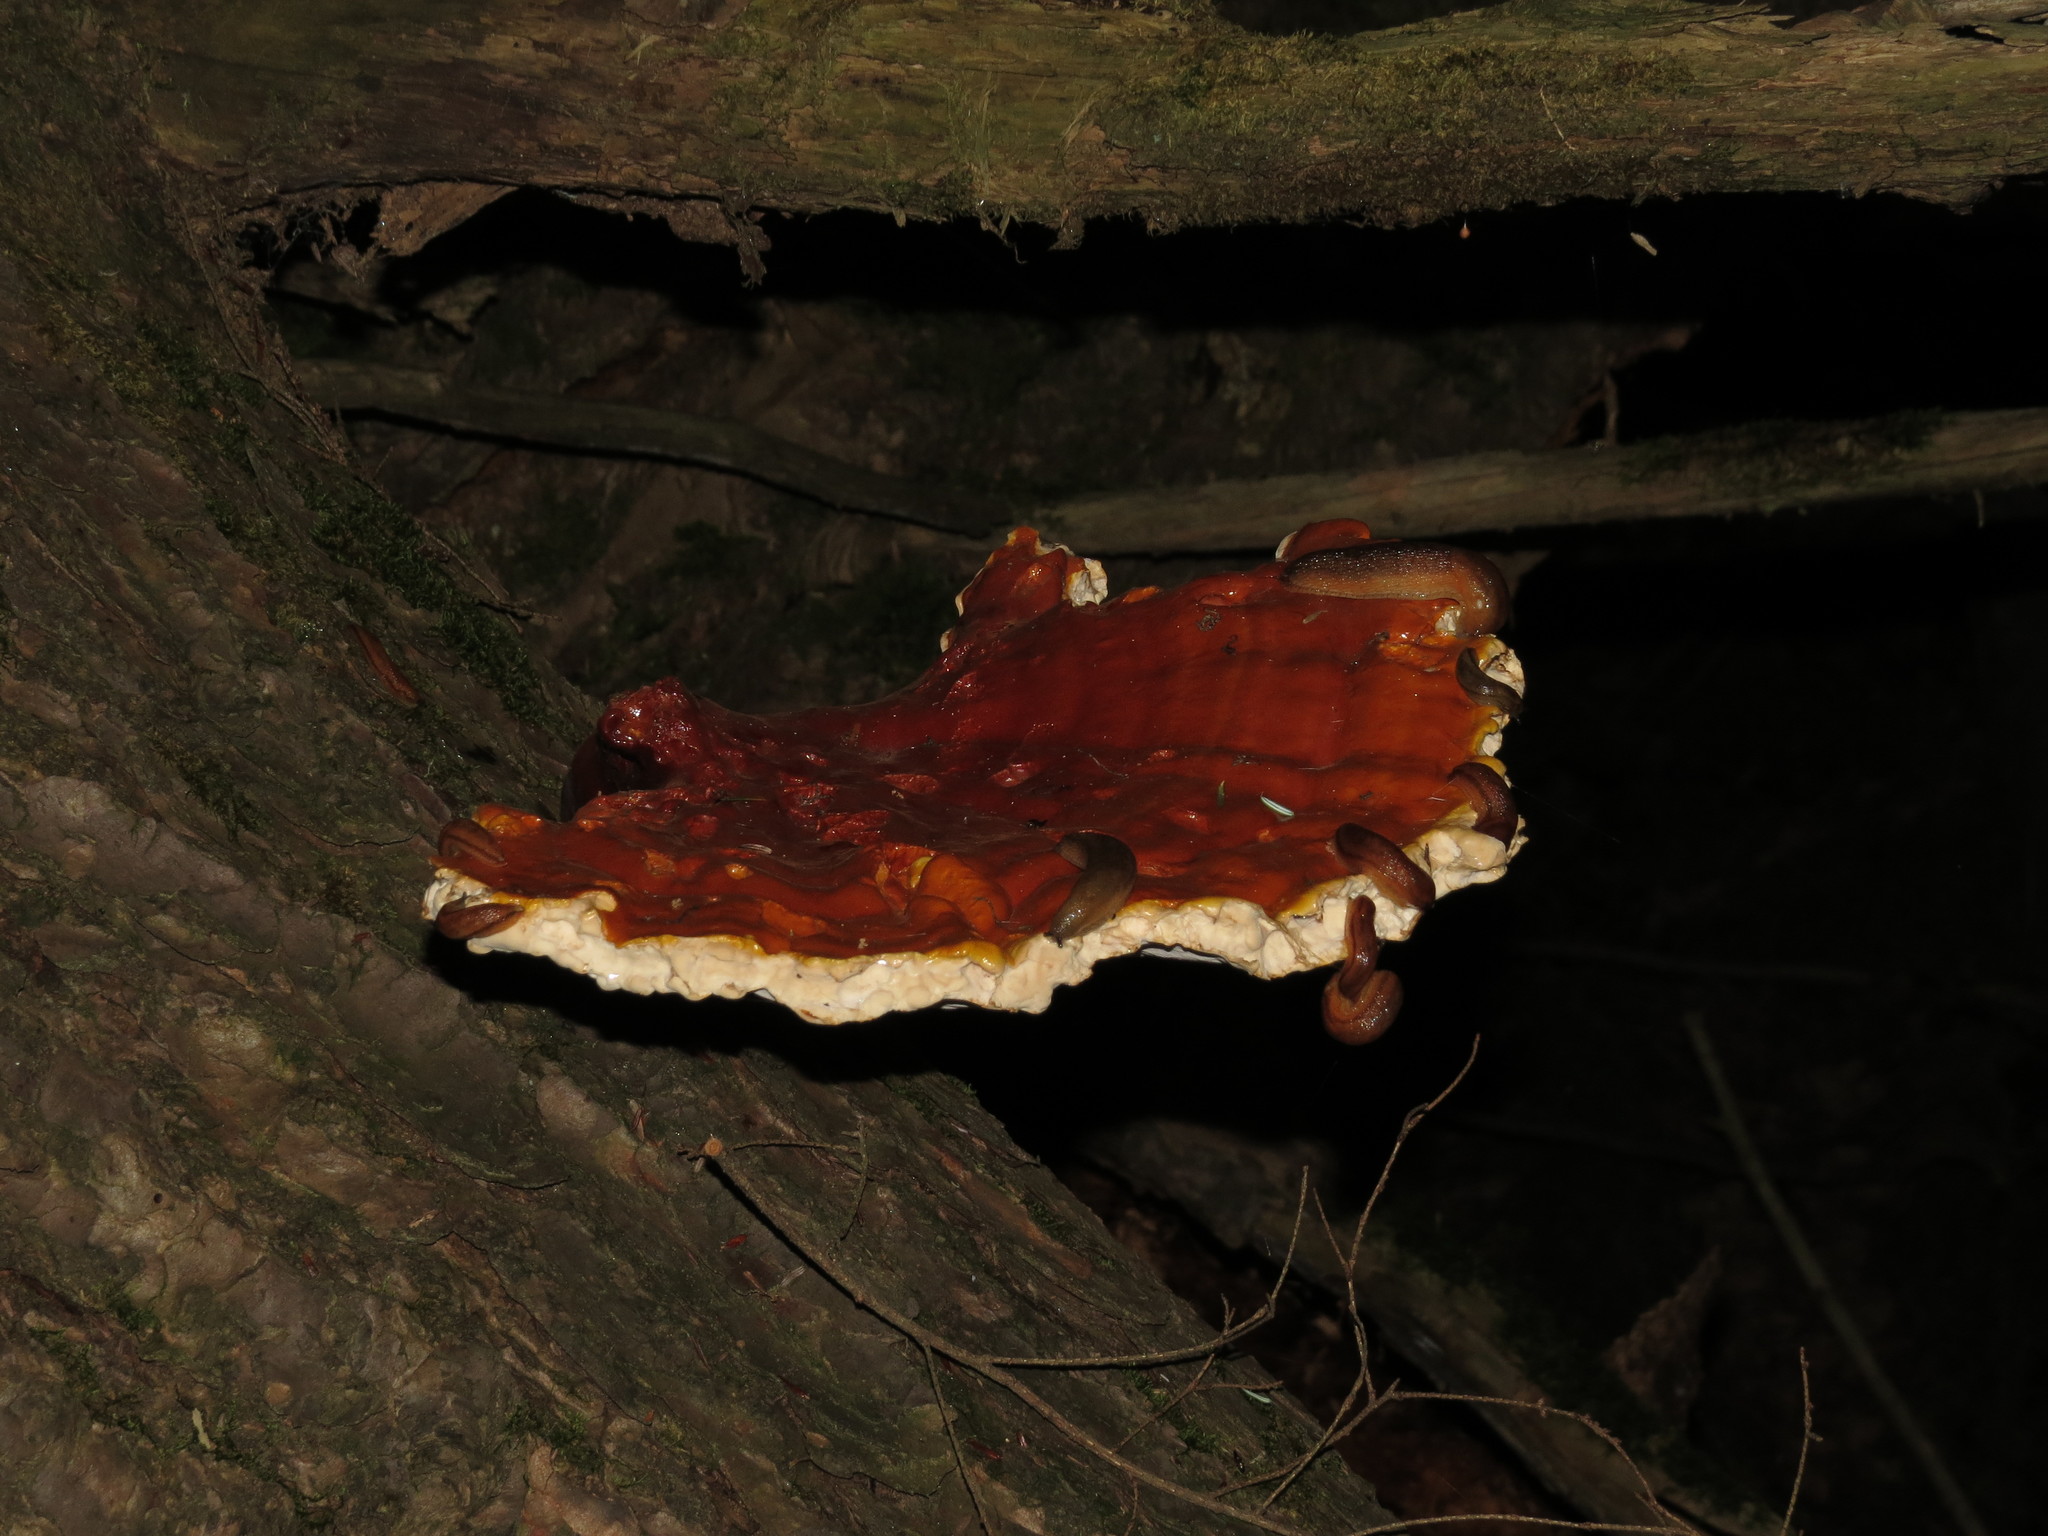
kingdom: Fungi
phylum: Basidiomycota
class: Agaricomycetes
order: Polyporales
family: Polyporaceae
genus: Ganoderma
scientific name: Ganoderma tsugae
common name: Hemlock varnish shelf
